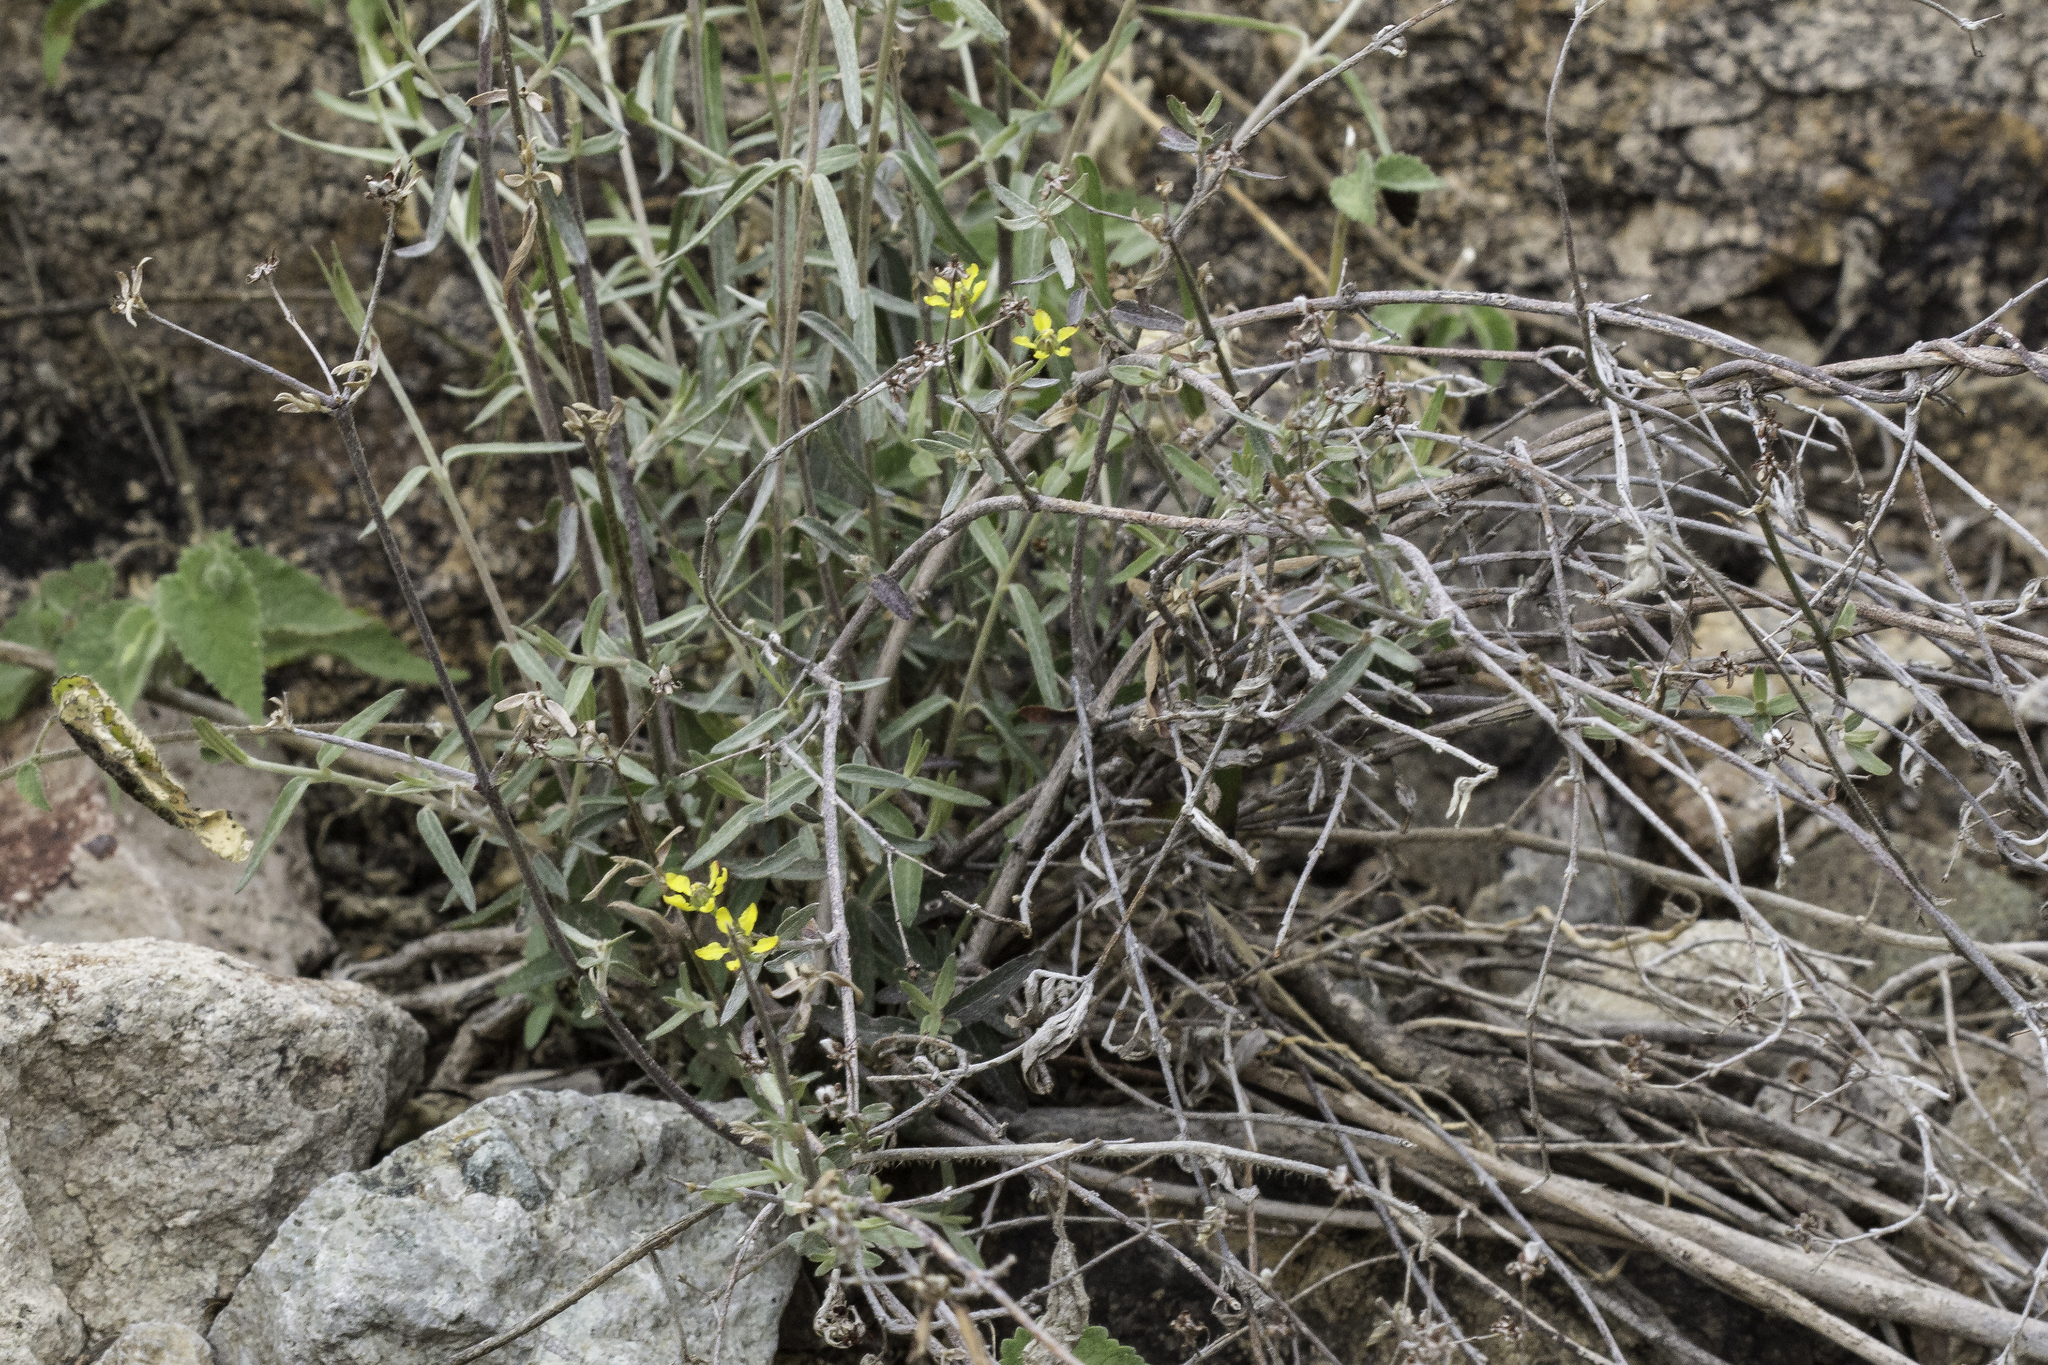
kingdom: Plantae
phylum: Tracheophyta
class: Magnoliopsida
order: Malpighiales
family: Malpighiaceae
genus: Cottsia
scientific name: Cottsia gracilis
